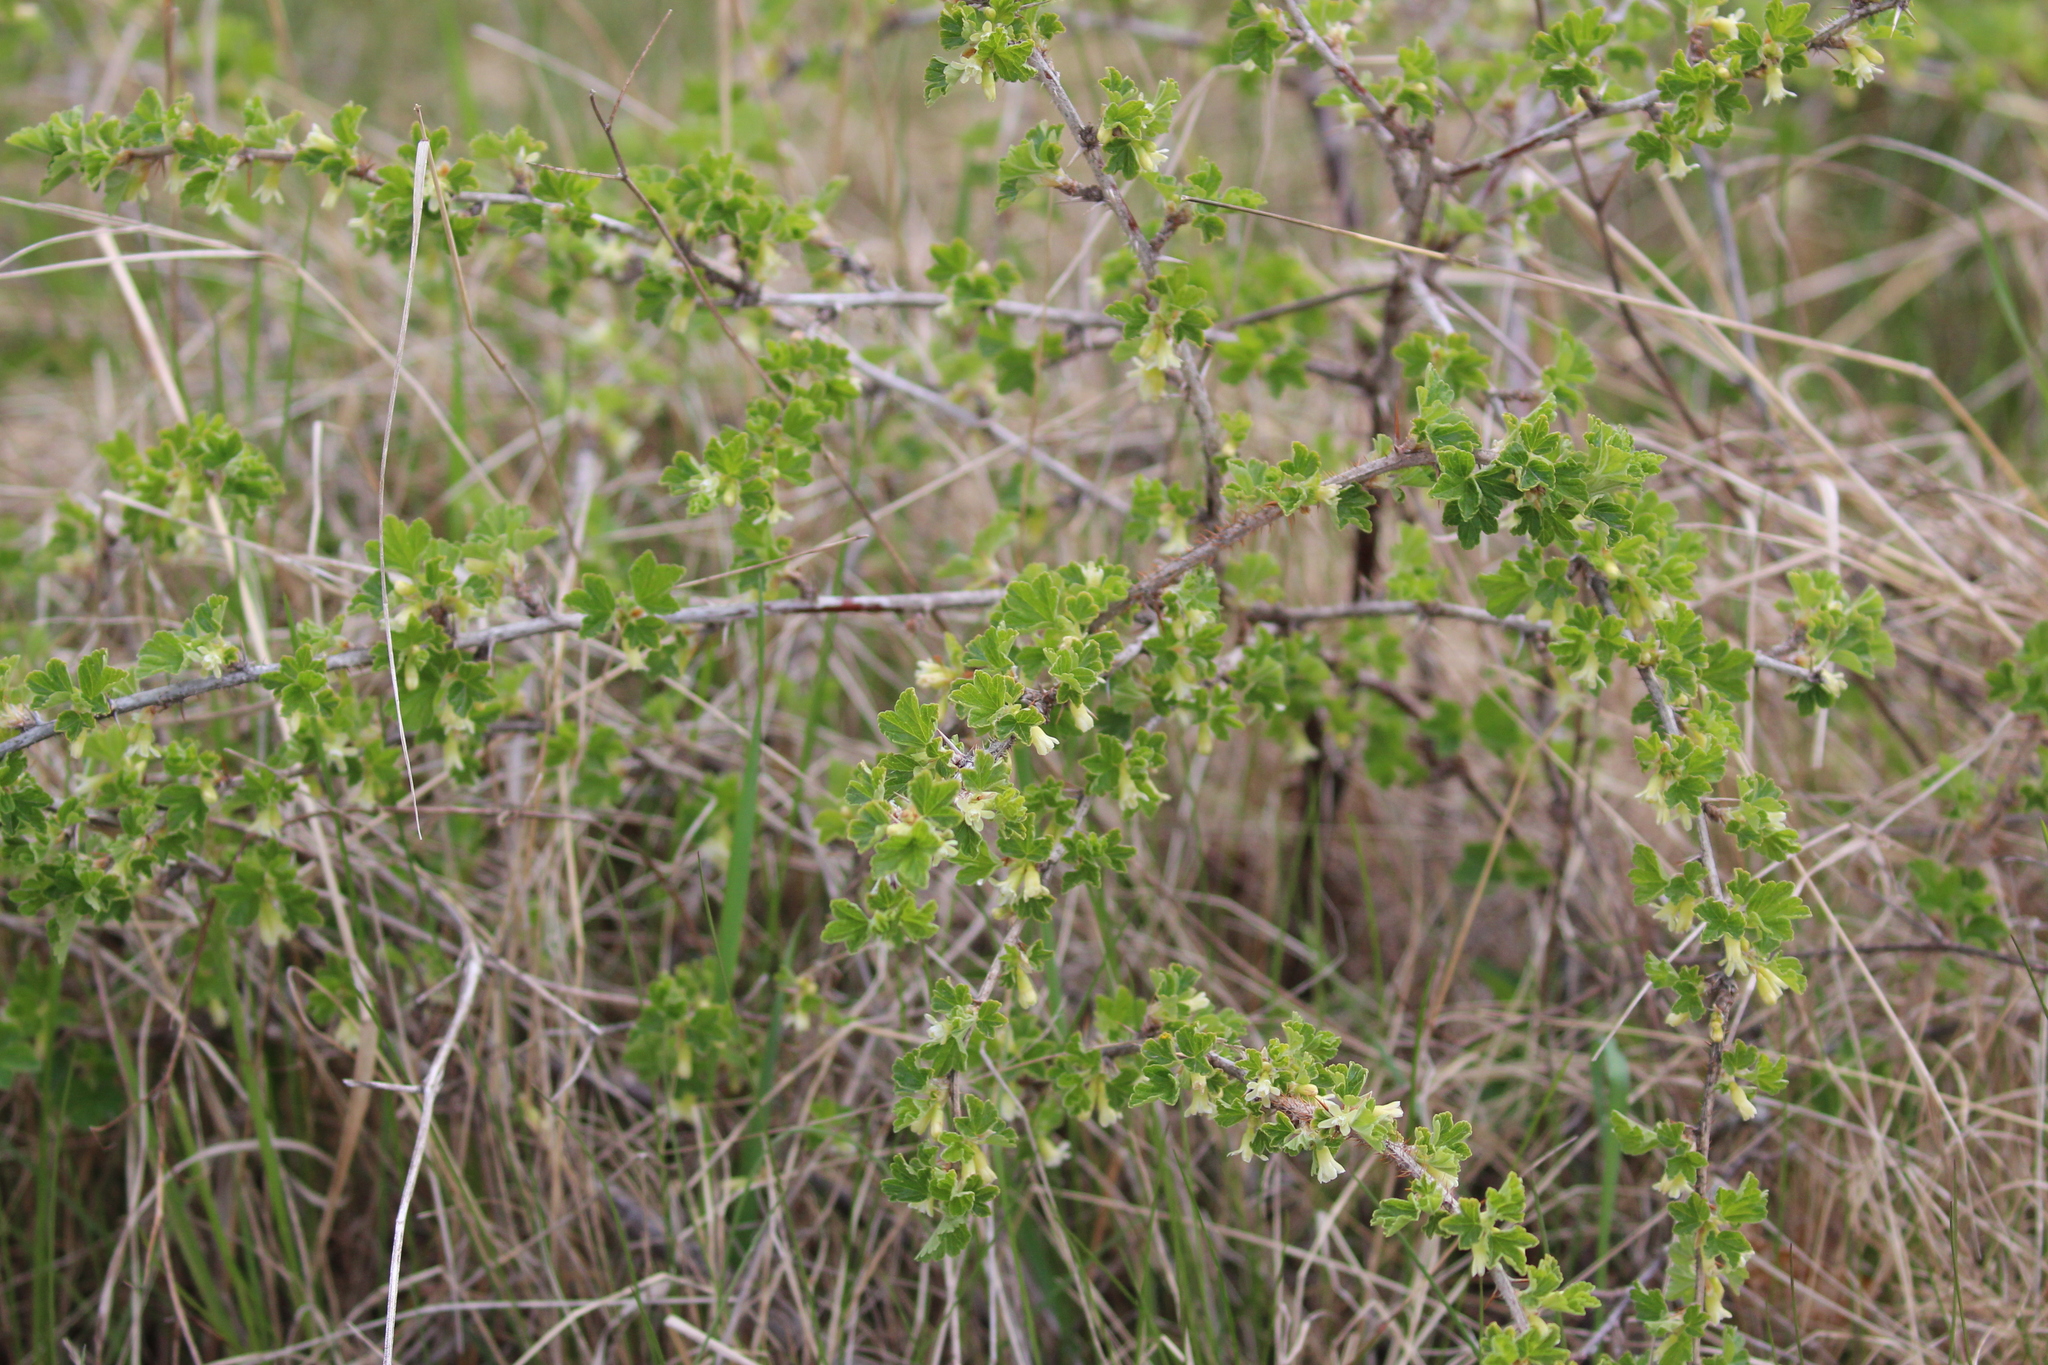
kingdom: Plantae
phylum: Tracheophyta
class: Magnoliopsida
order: Saxifragales
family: Grossulariaceae
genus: Ribes
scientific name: Ribes oxyacanthoides
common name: Northern gooseberry
